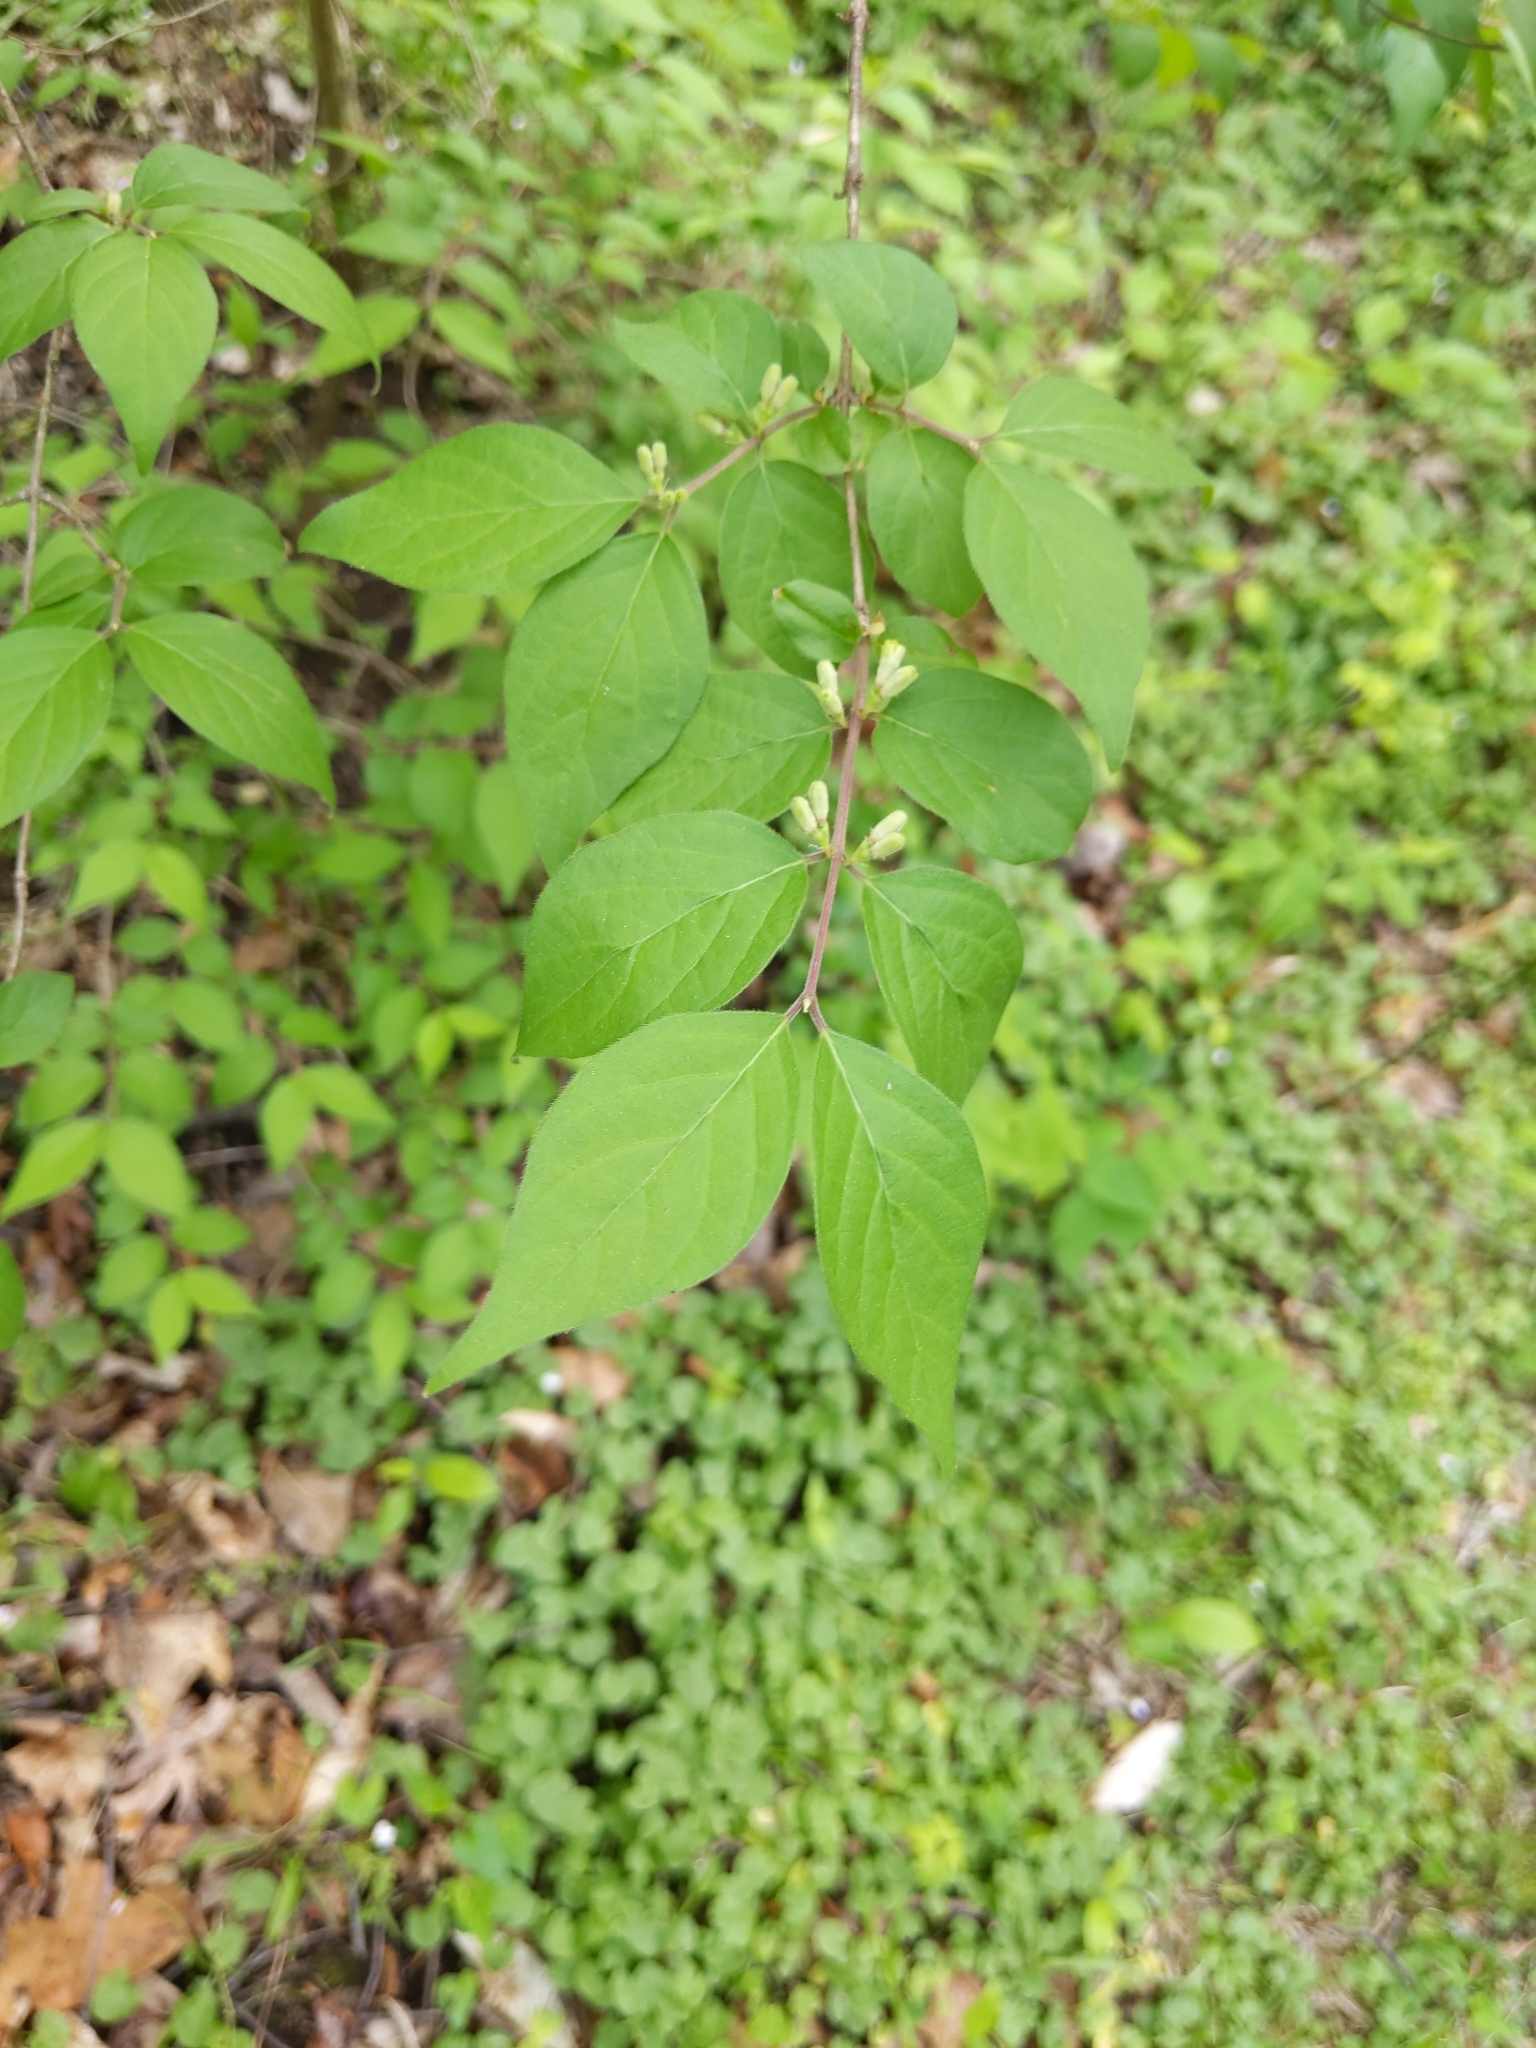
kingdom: Plantae
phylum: Tracheophyta
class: Magnoliopsida
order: Dipsacales
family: Caprifoliaceae
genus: Lonicera
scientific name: Lonicera maackii
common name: Amur honeysuckle
